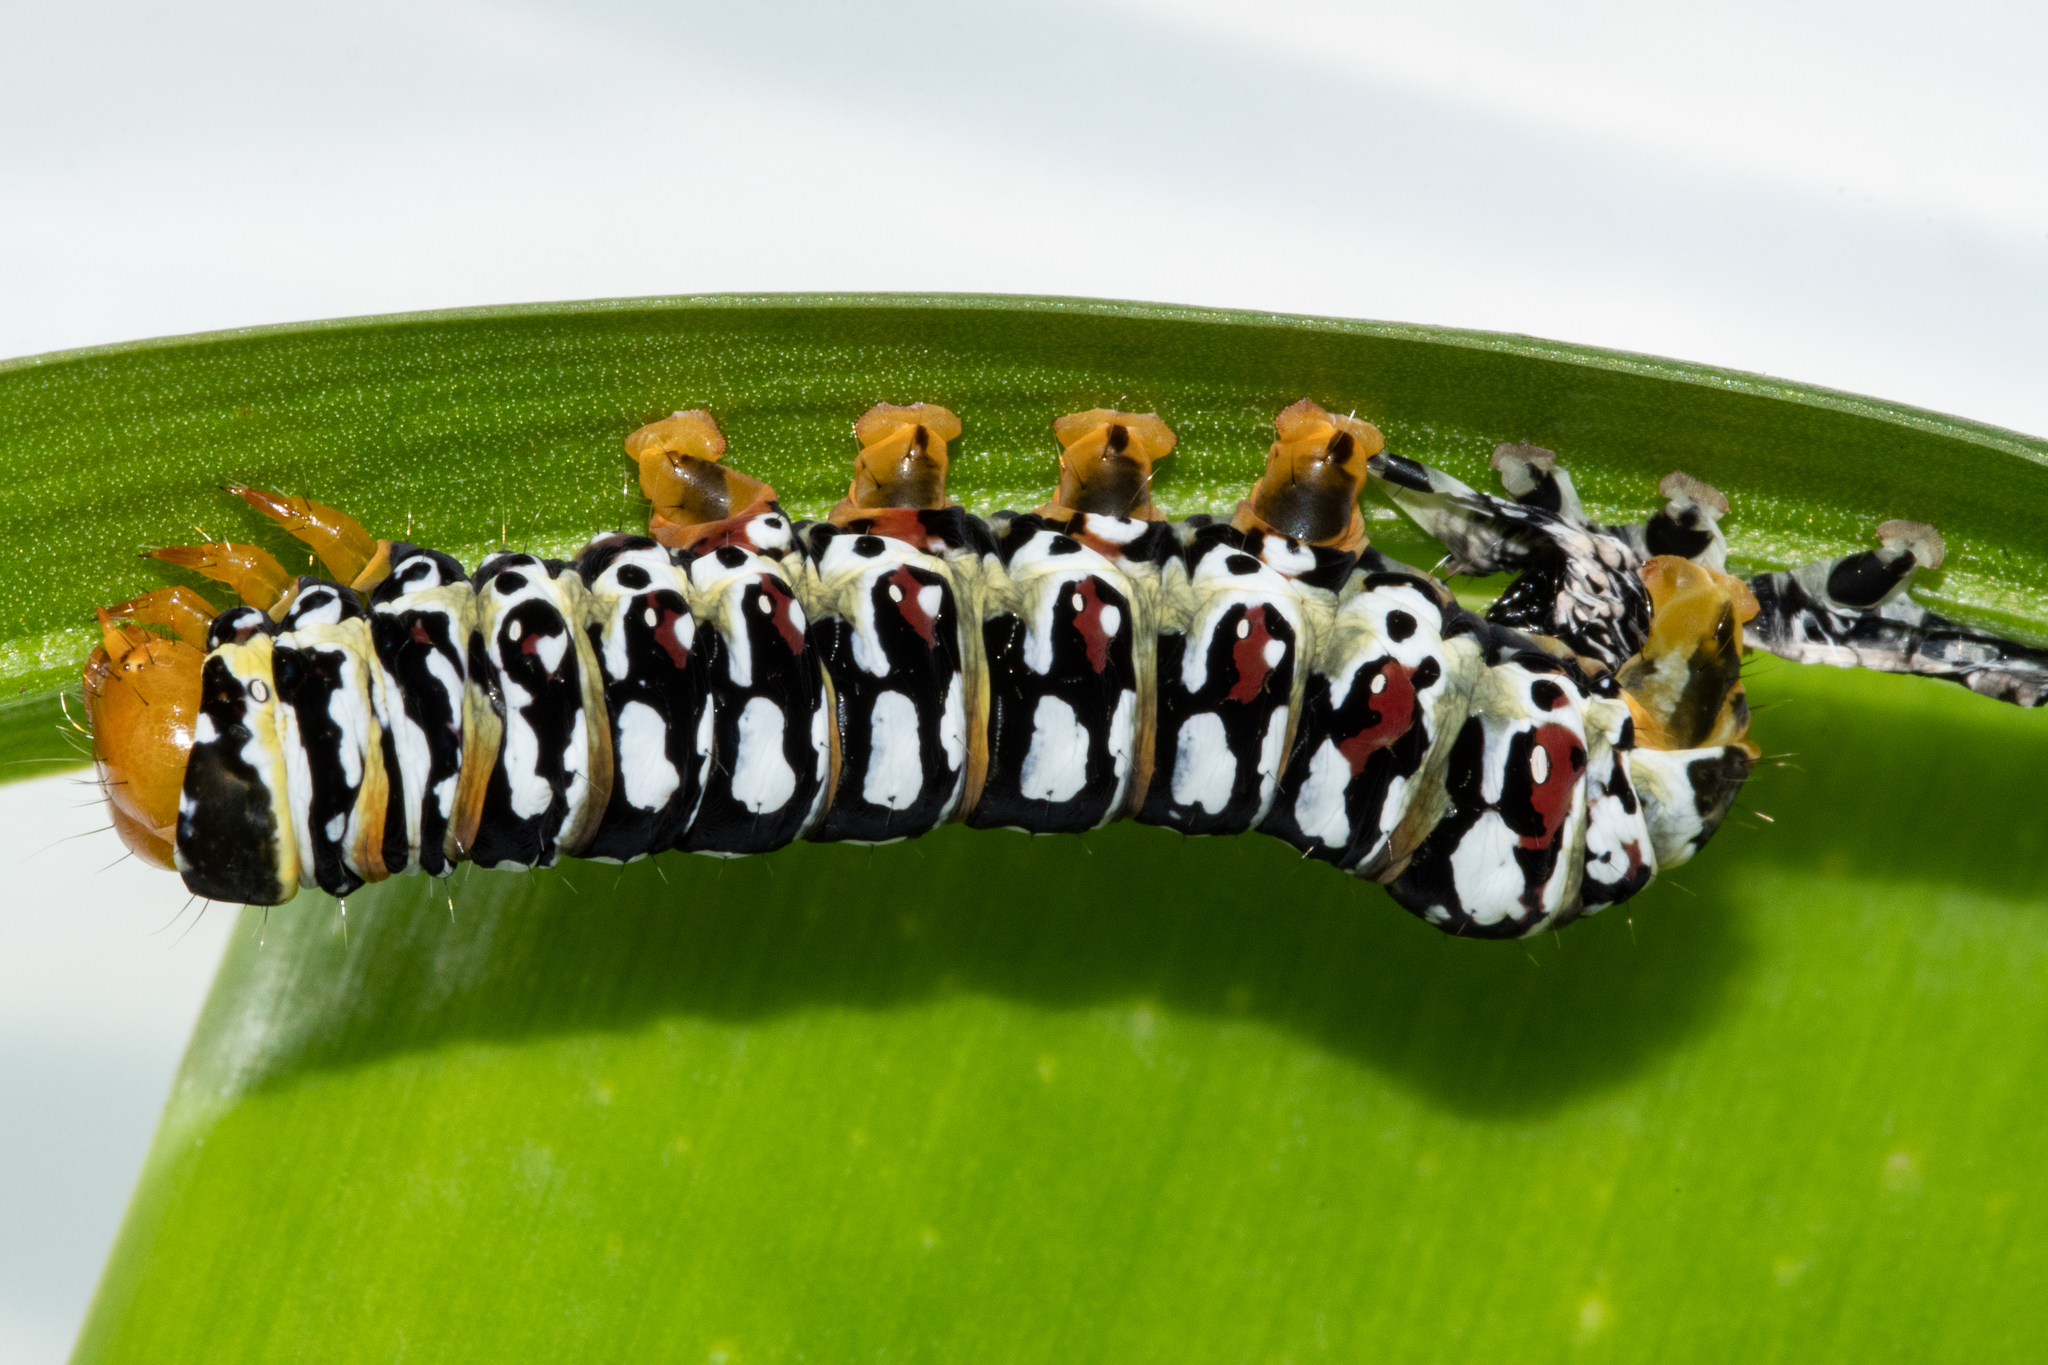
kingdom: Animalia
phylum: Arthropoda
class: Insecta
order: Lepidoptera
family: Noctuidae
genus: Klugeana
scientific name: Klugeana philoxalis
